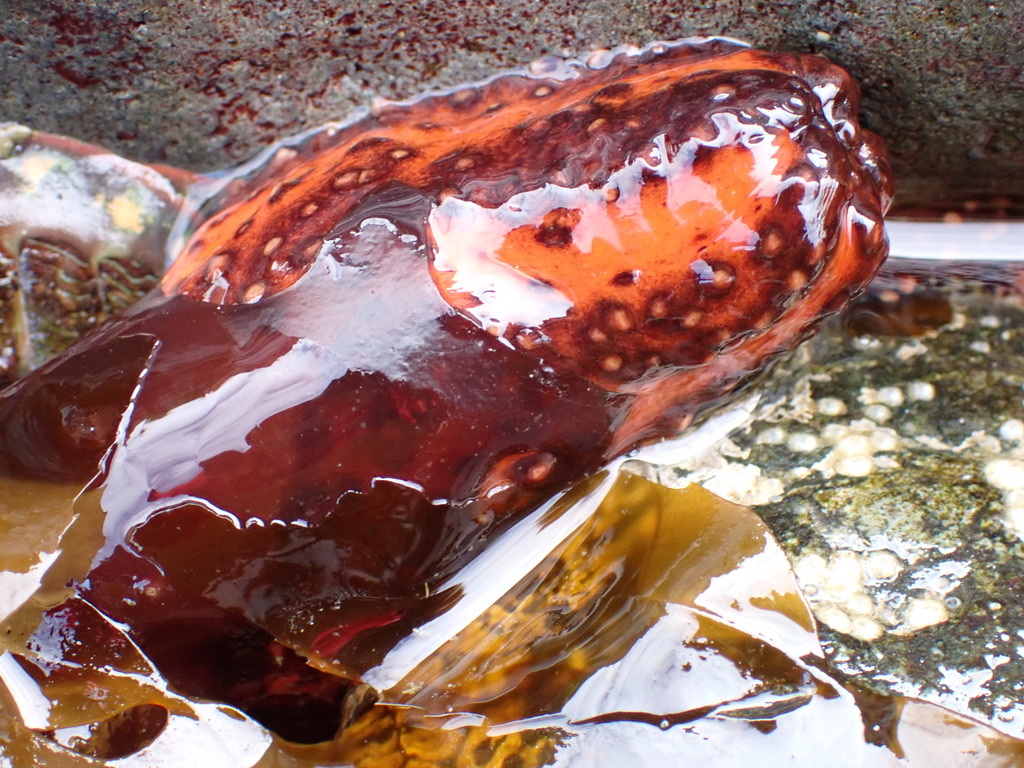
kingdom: Animalia
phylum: Echinodermata
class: Holothuroidea
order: Dendrochirotida
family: Cucumariidae
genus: Cucumaria
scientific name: Cucumaria miniata
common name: Orange sea cucumber
